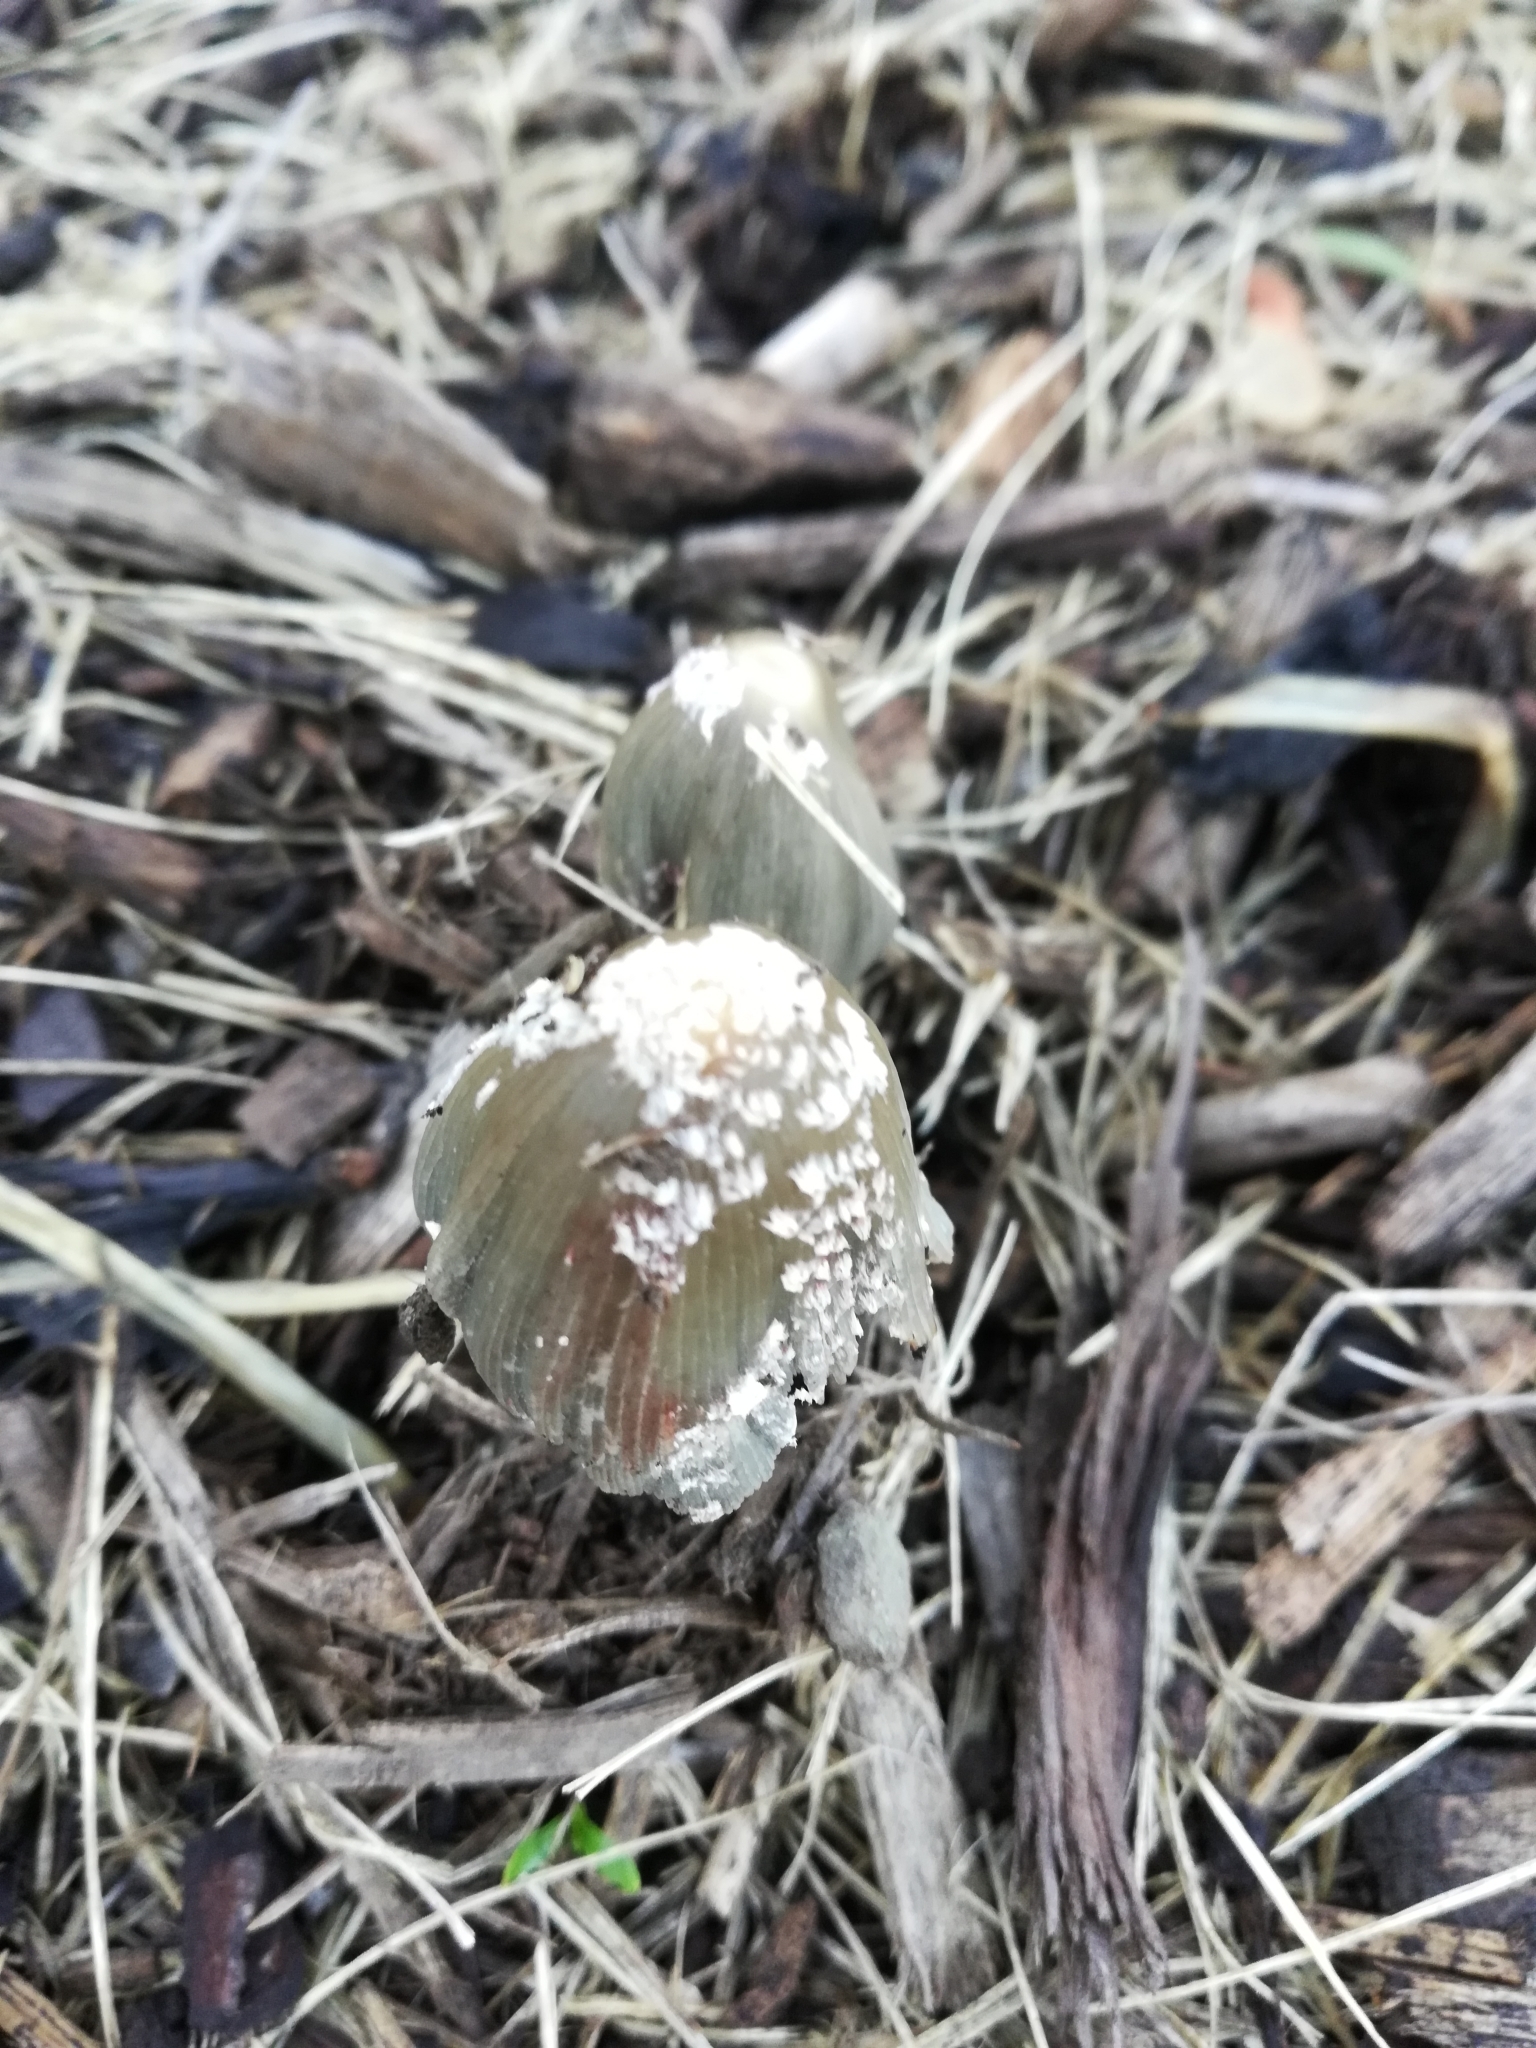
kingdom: Fungi
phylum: Basidiomycota
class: Agaricomycetes
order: Agaricales
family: Psathyrellaceae
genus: Coprinellus
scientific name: Coprinellus flocculosus
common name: Flocculose inkcap
